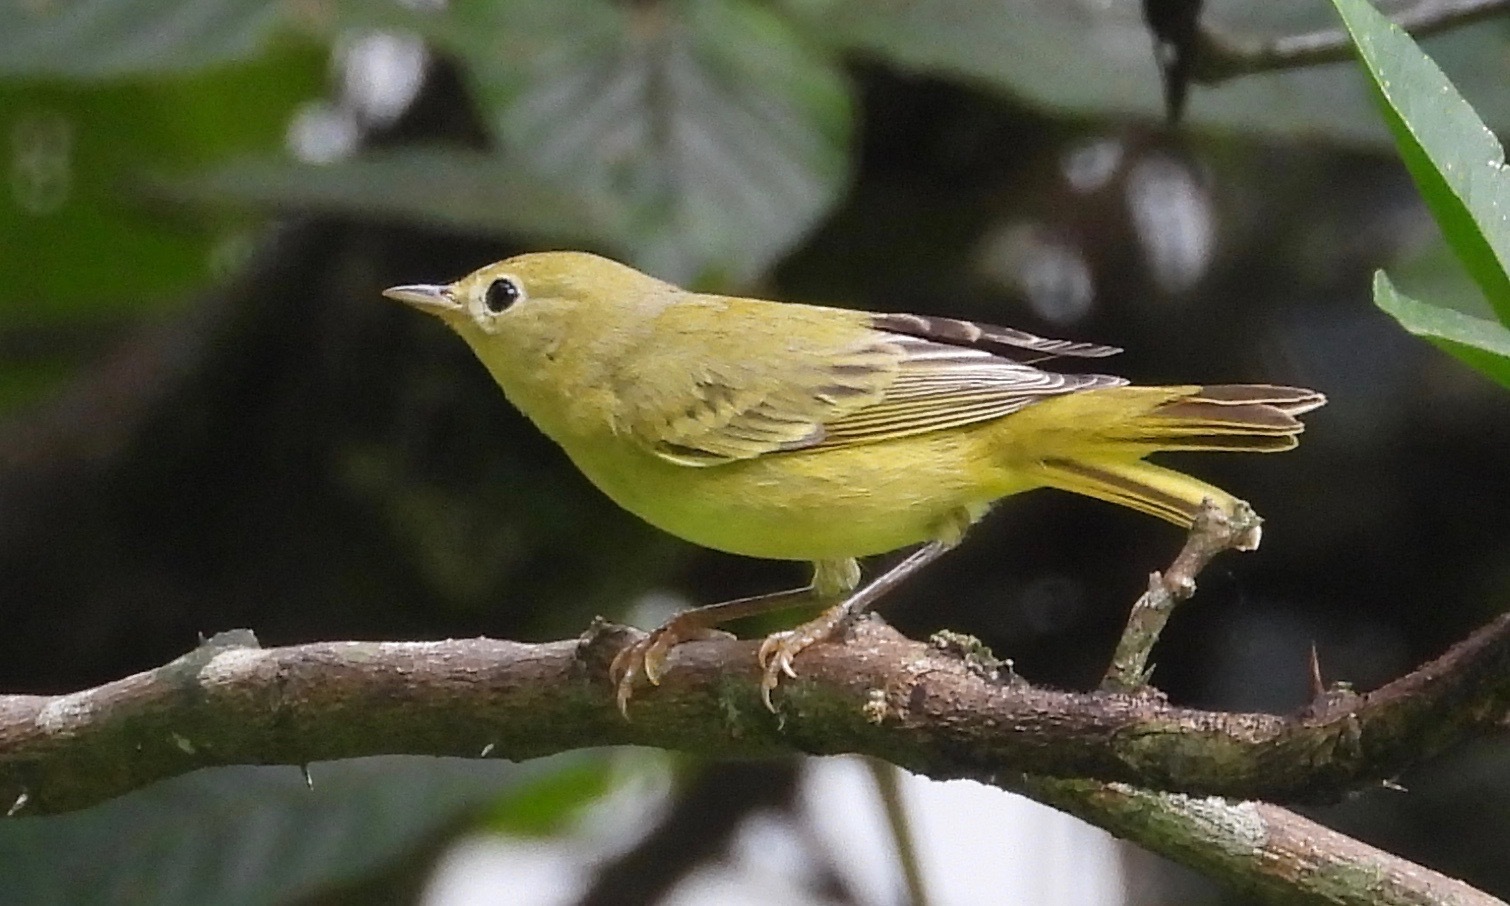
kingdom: Animalia
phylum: Chordata
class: Aves
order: Passeriformes
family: Parulidae
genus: Setophaga
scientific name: Setophaga petechia
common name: Yellow warbler
